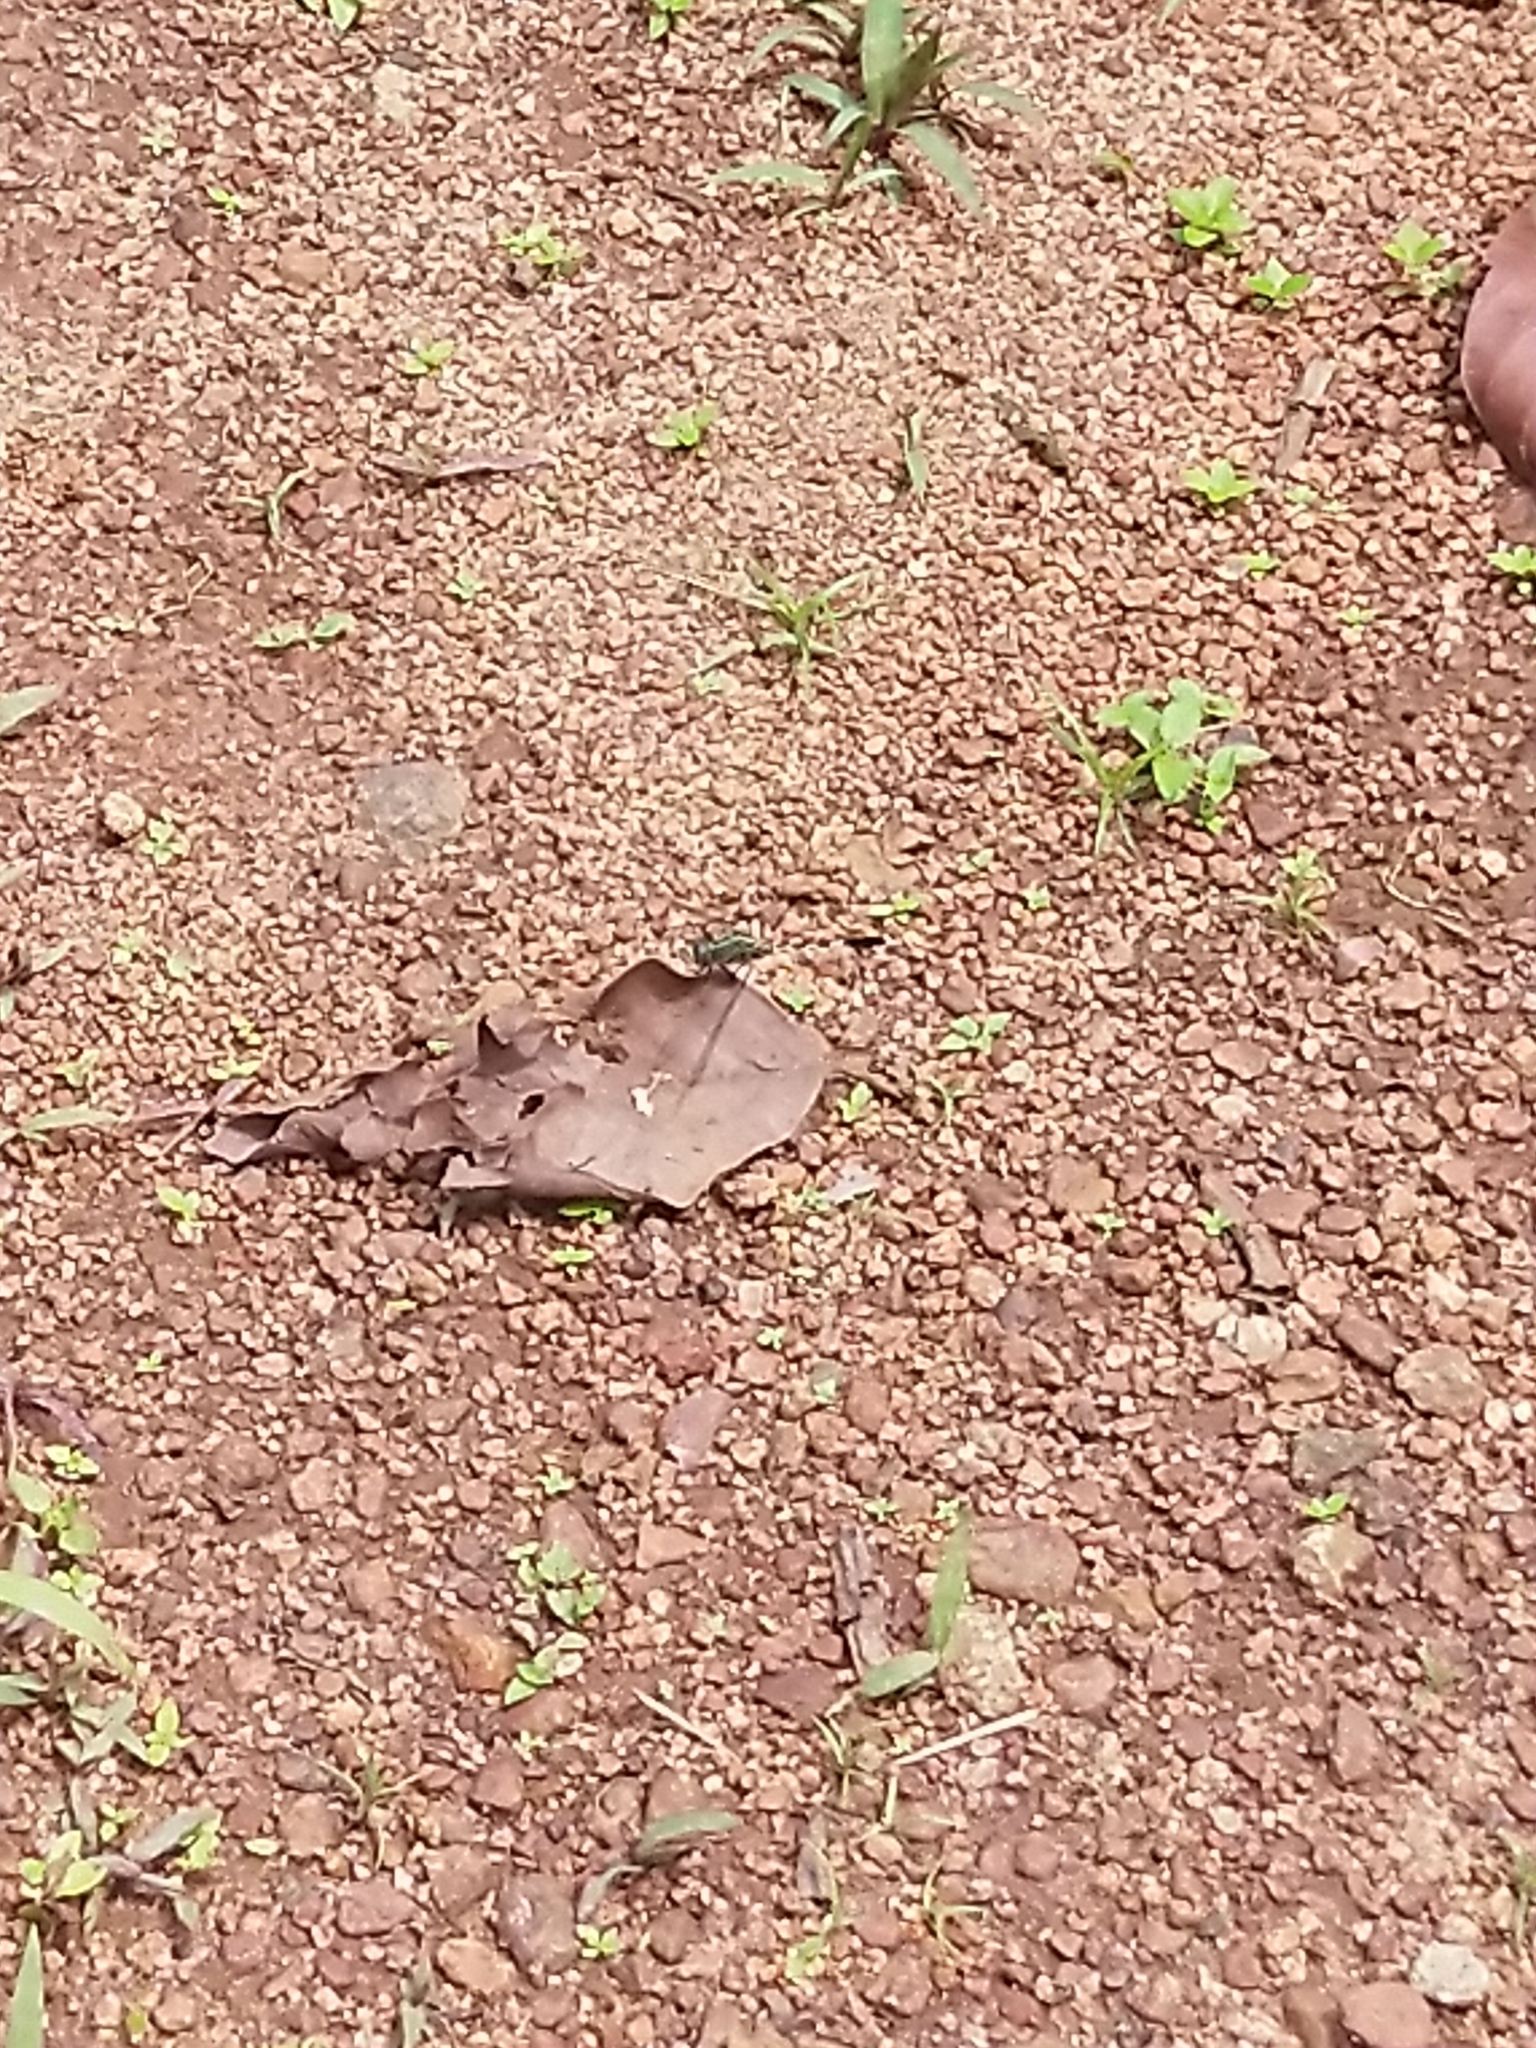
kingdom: Animalia
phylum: Arthropoda
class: Insecta
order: Odonata
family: Libellulidae
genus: Orthetrum
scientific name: Orthetrum sabina
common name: Slender skimmer
